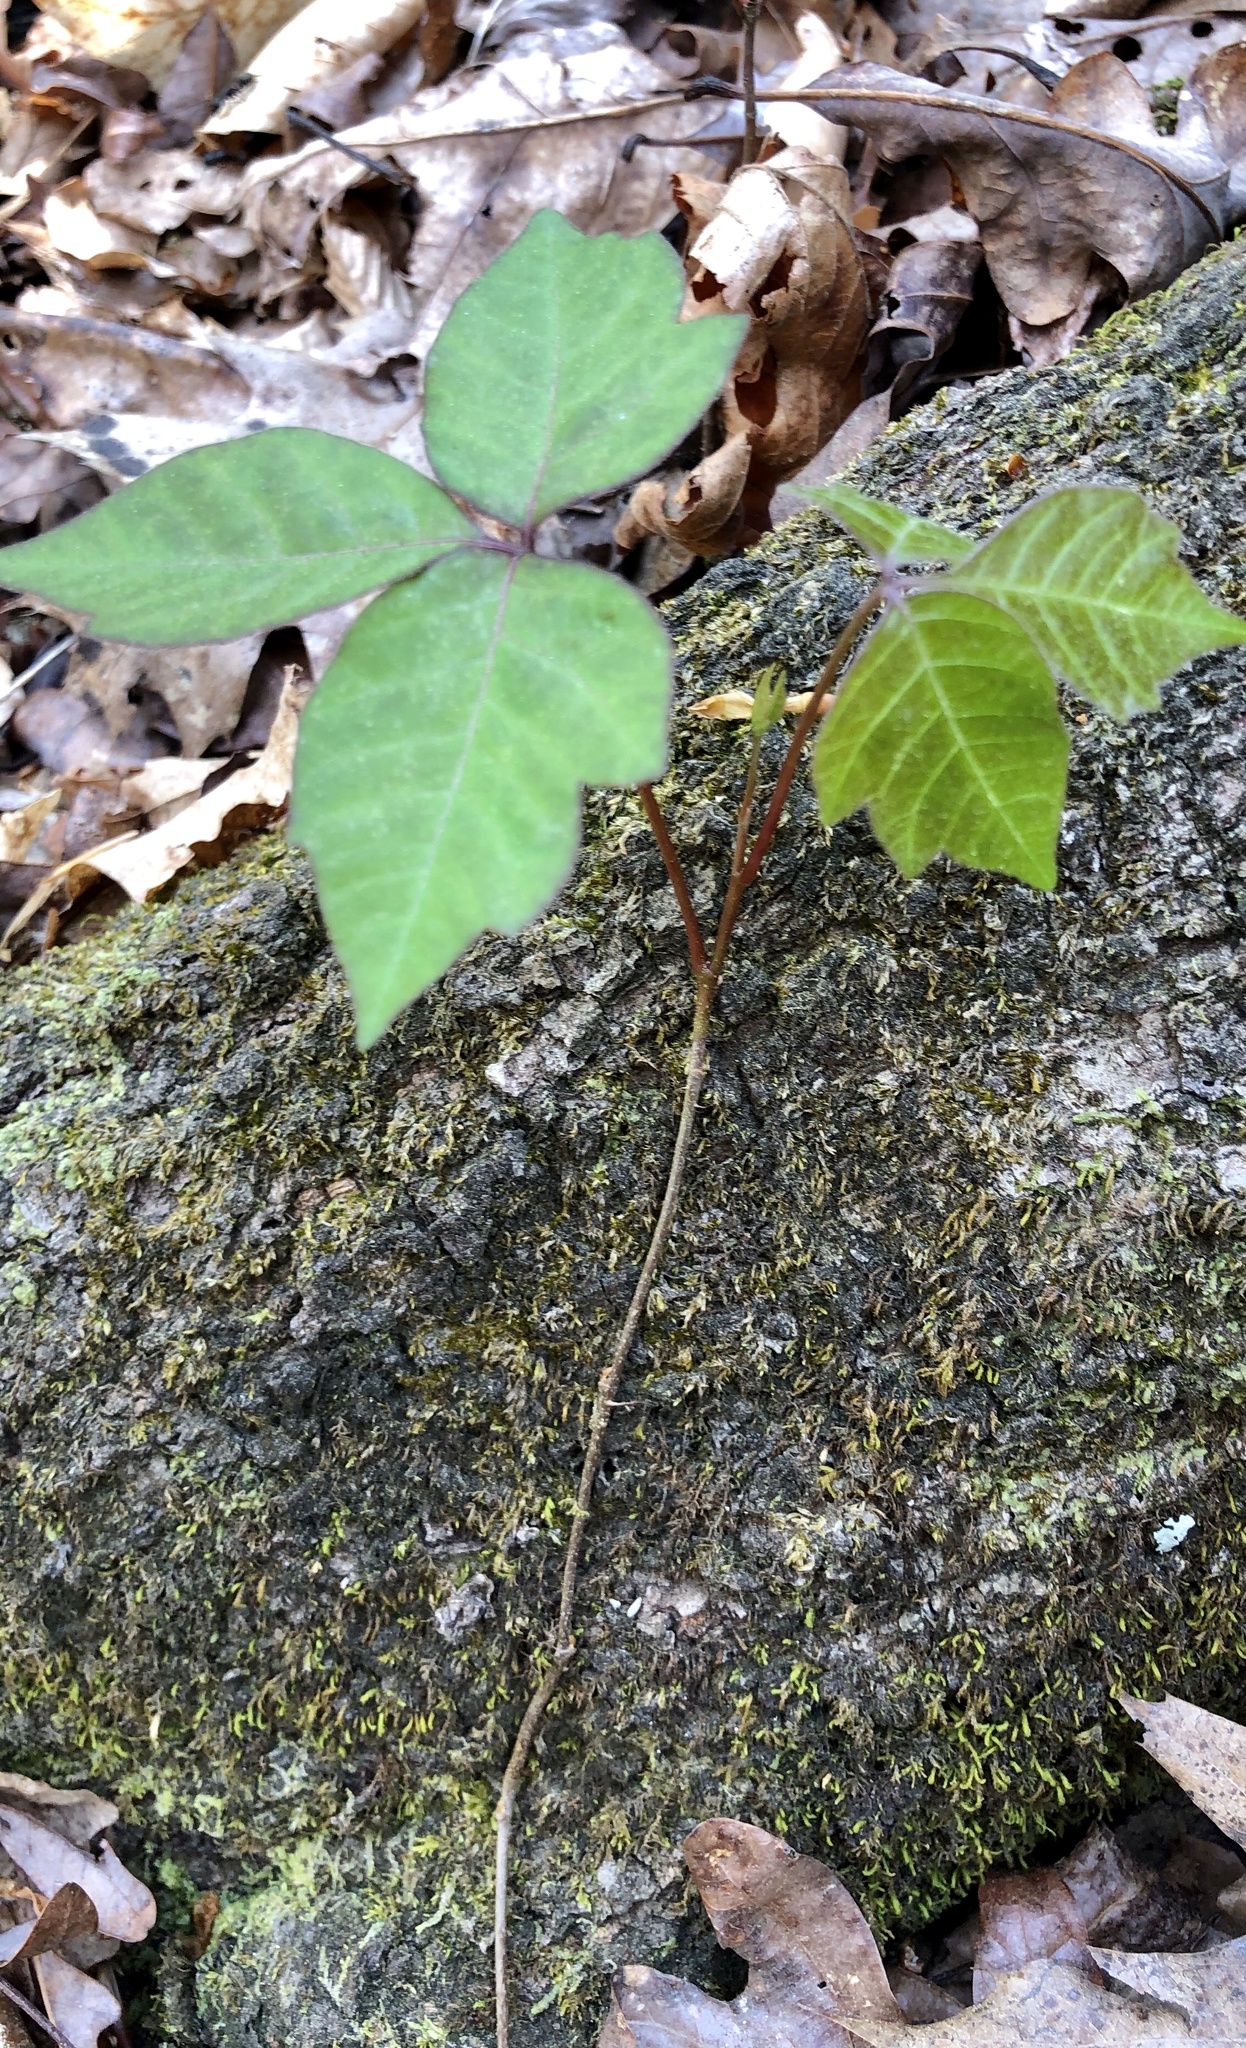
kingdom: Plantae
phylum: Tracheophyta
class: Magnoliopsida
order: Sapindales
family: Anacardiaceae
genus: Toxicodendron
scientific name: Toxicodendron radicans
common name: Poison ivy
